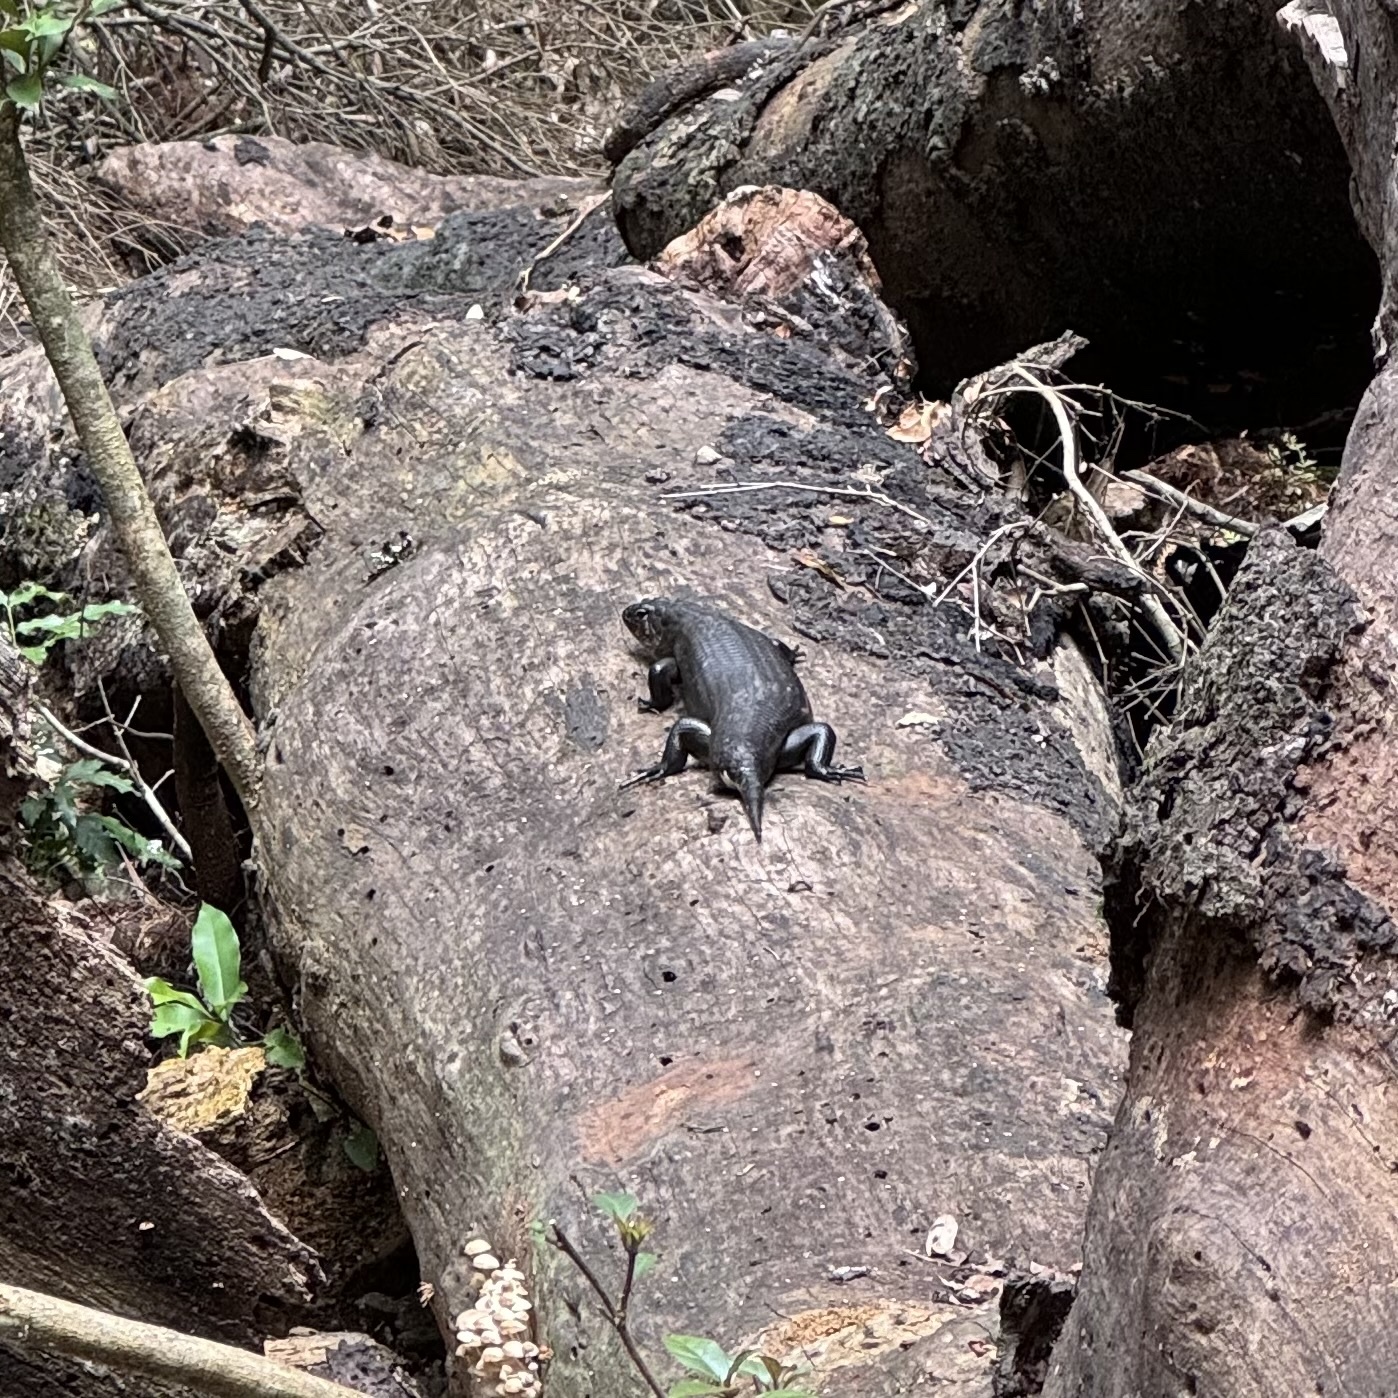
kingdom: Animalia
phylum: Chordata
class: Squamata
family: Scincidae
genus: Bellatorias
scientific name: Bellatorias major
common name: Land mullet
